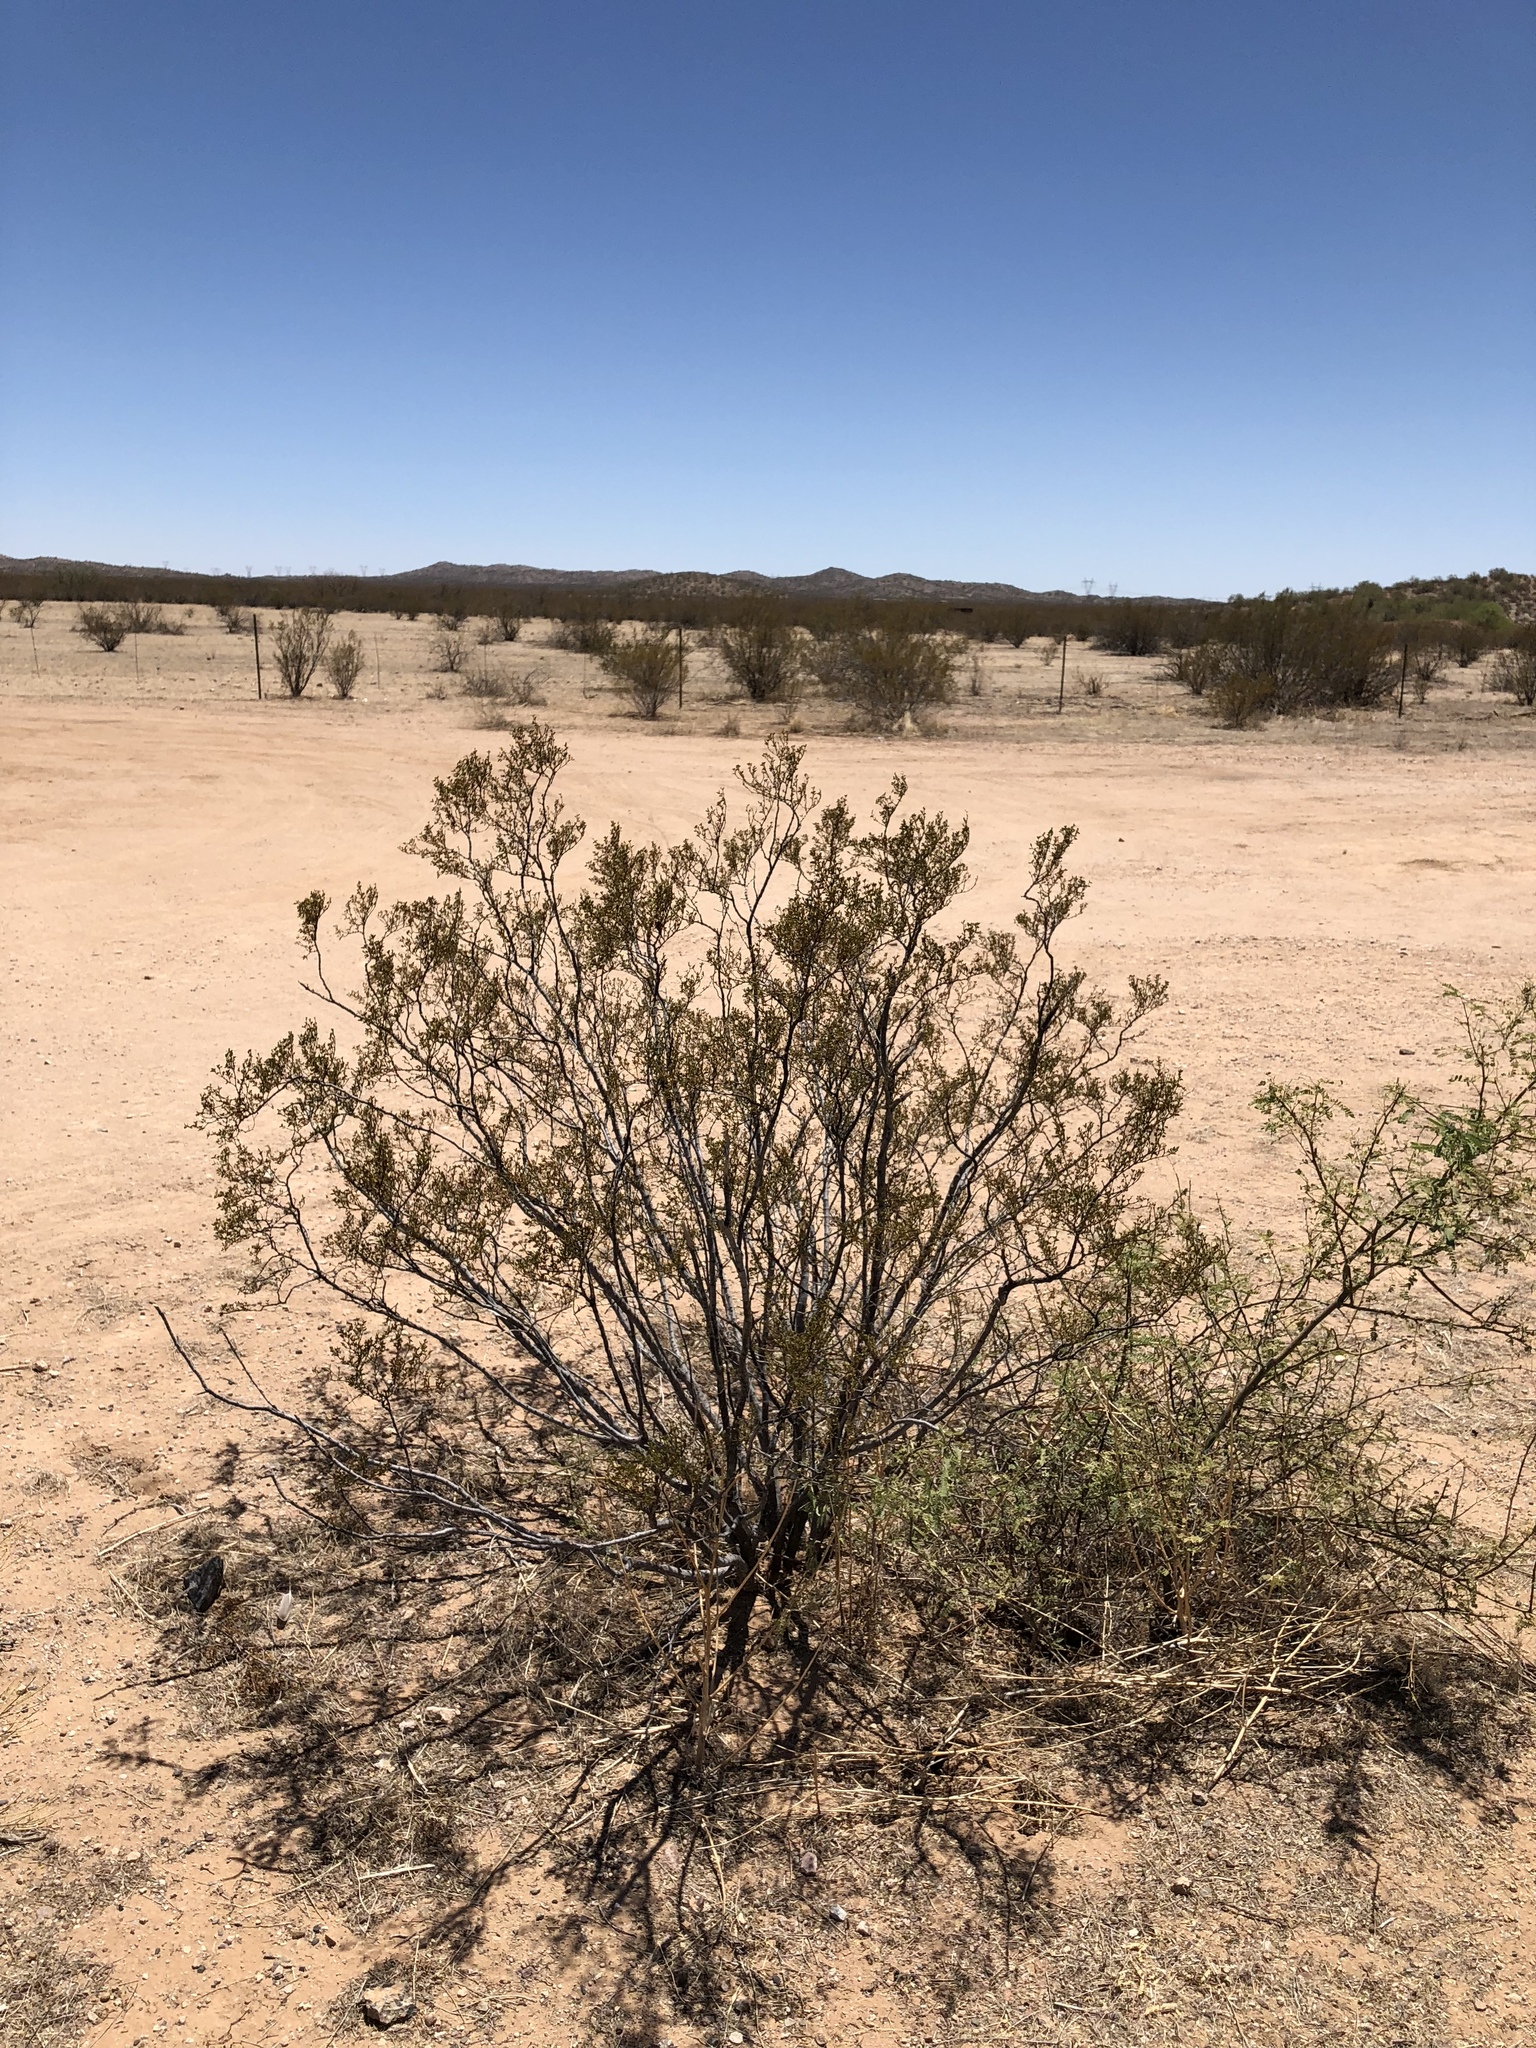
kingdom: Plantae
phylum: Tracheophyta
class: Magnoliopsida
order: Zygophyllales
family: Zygophyllaceae
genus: Larrea
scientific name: Larrea tridentata
